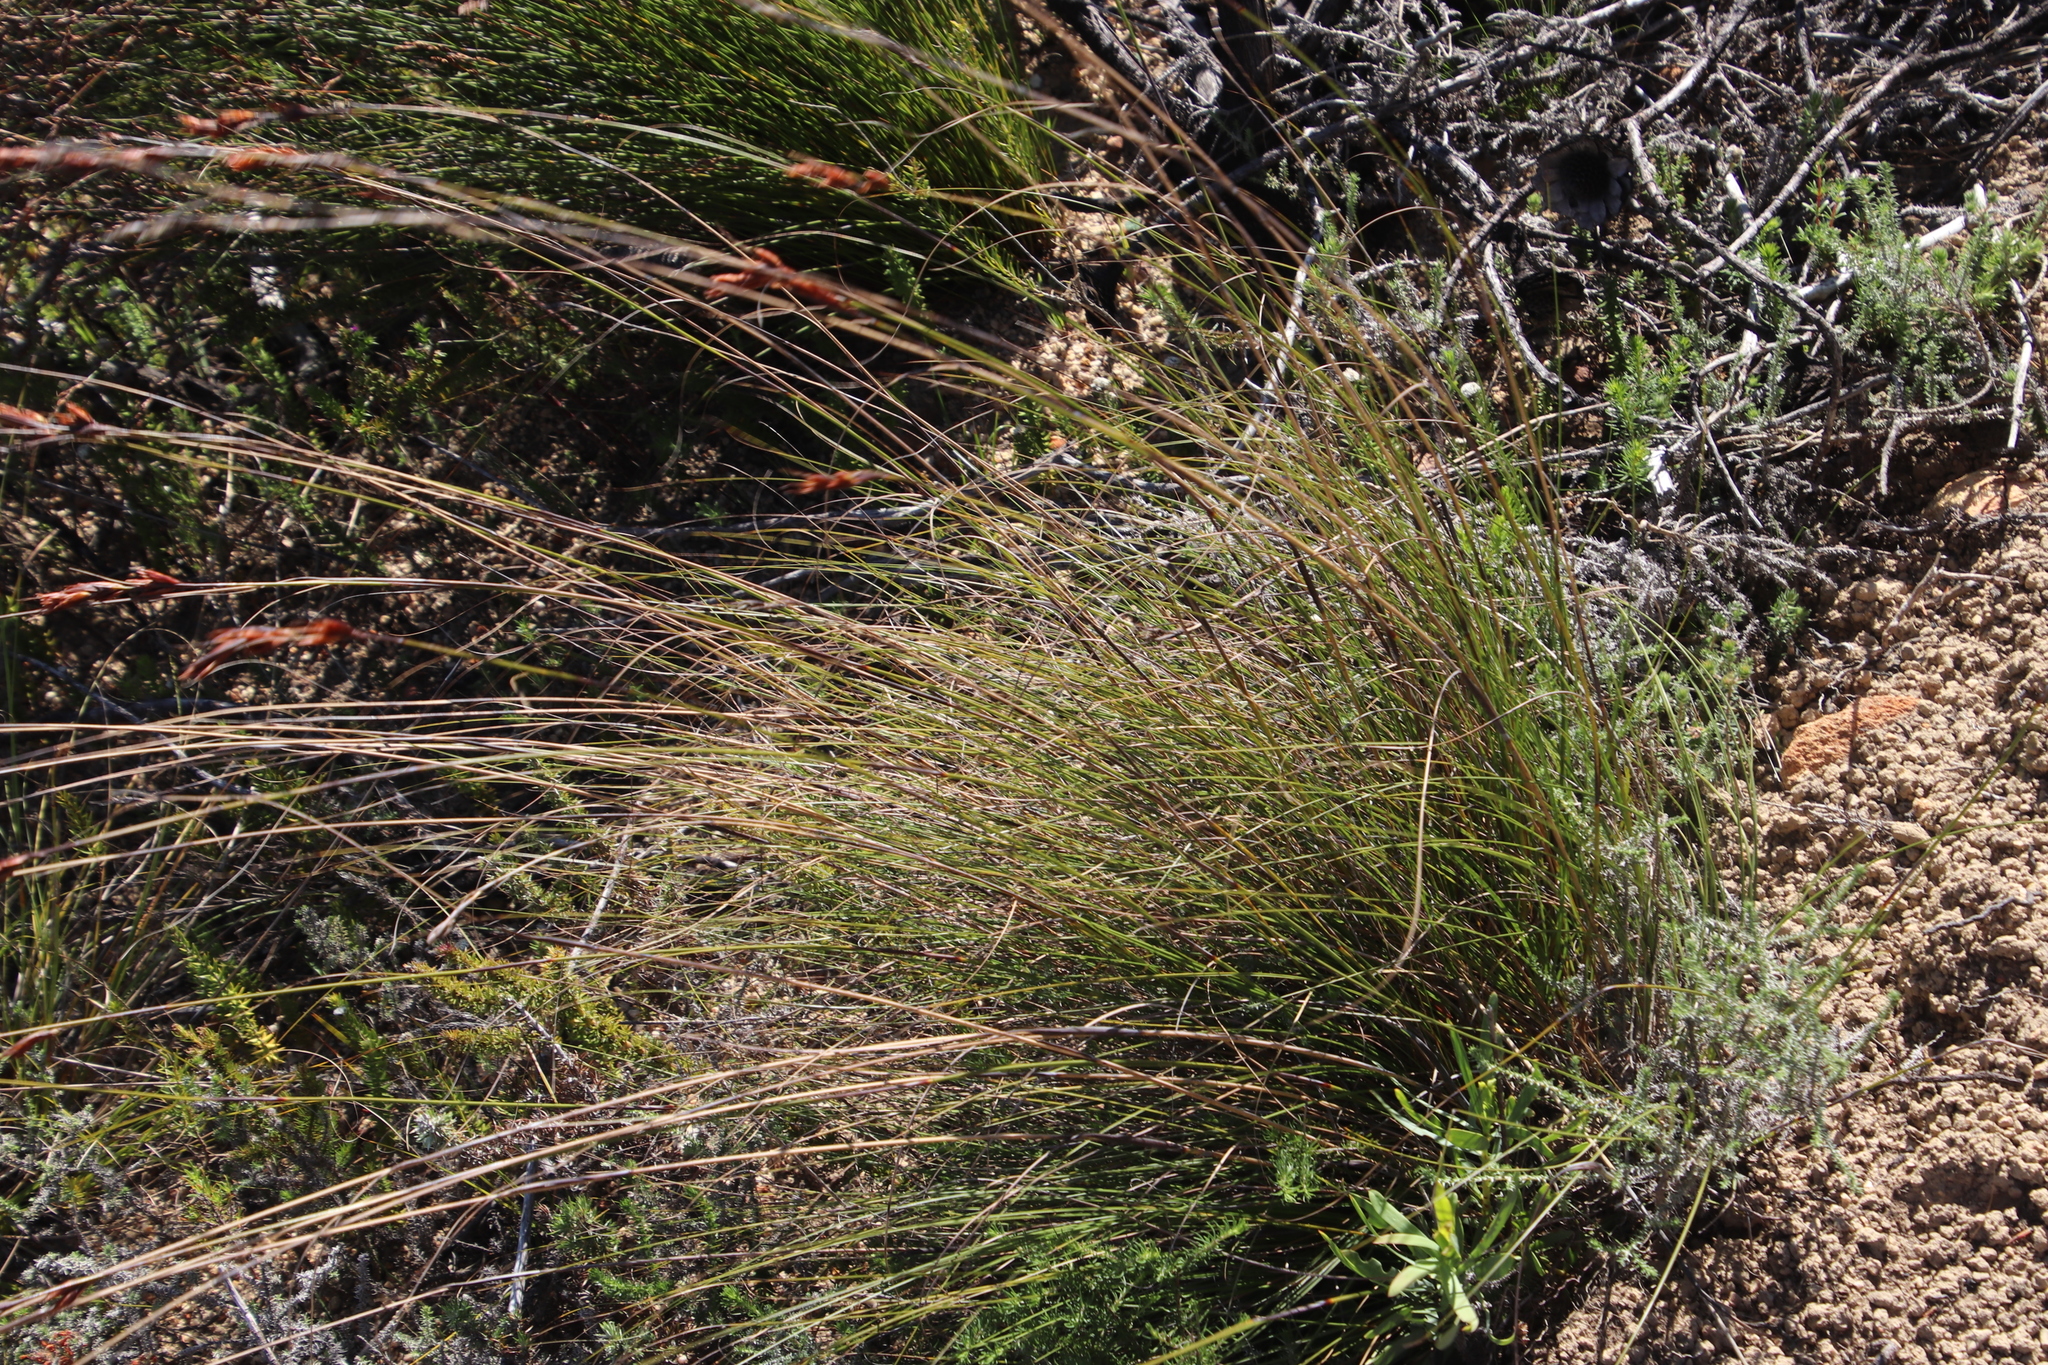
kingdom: Plantae
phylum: Tracheophyta
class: Liliopsida
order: Poales
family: Cyperaceae
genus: Tetraria
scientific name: Tetraria ustulata
